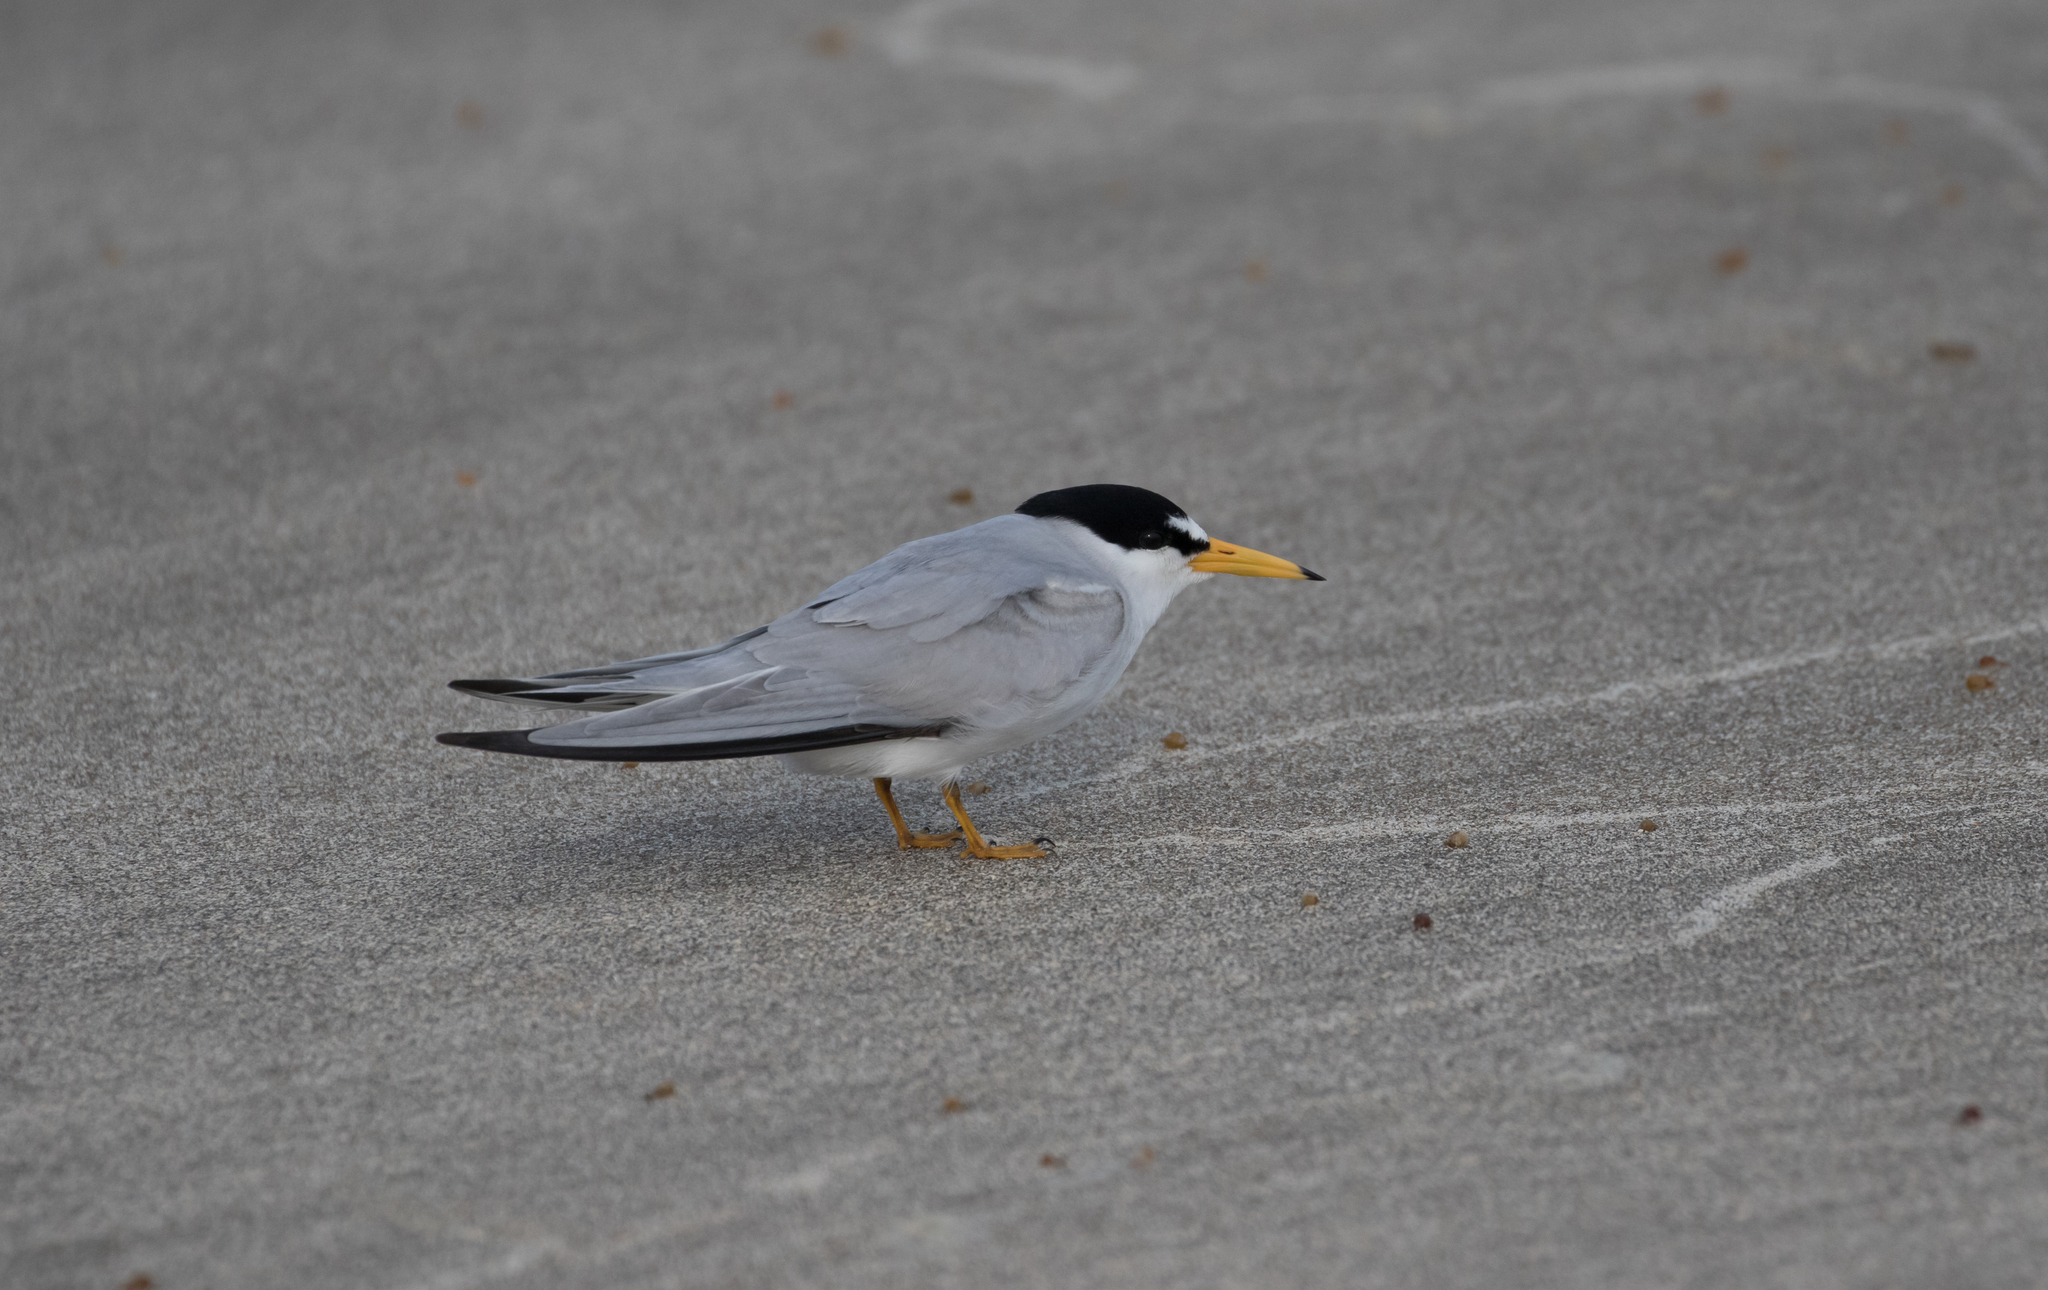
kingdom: Animalia
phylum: Chordata
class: Aves
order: Charadriiformes
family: Laridae
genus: Sternula
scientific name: Sternula antillarum
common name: Least tern
